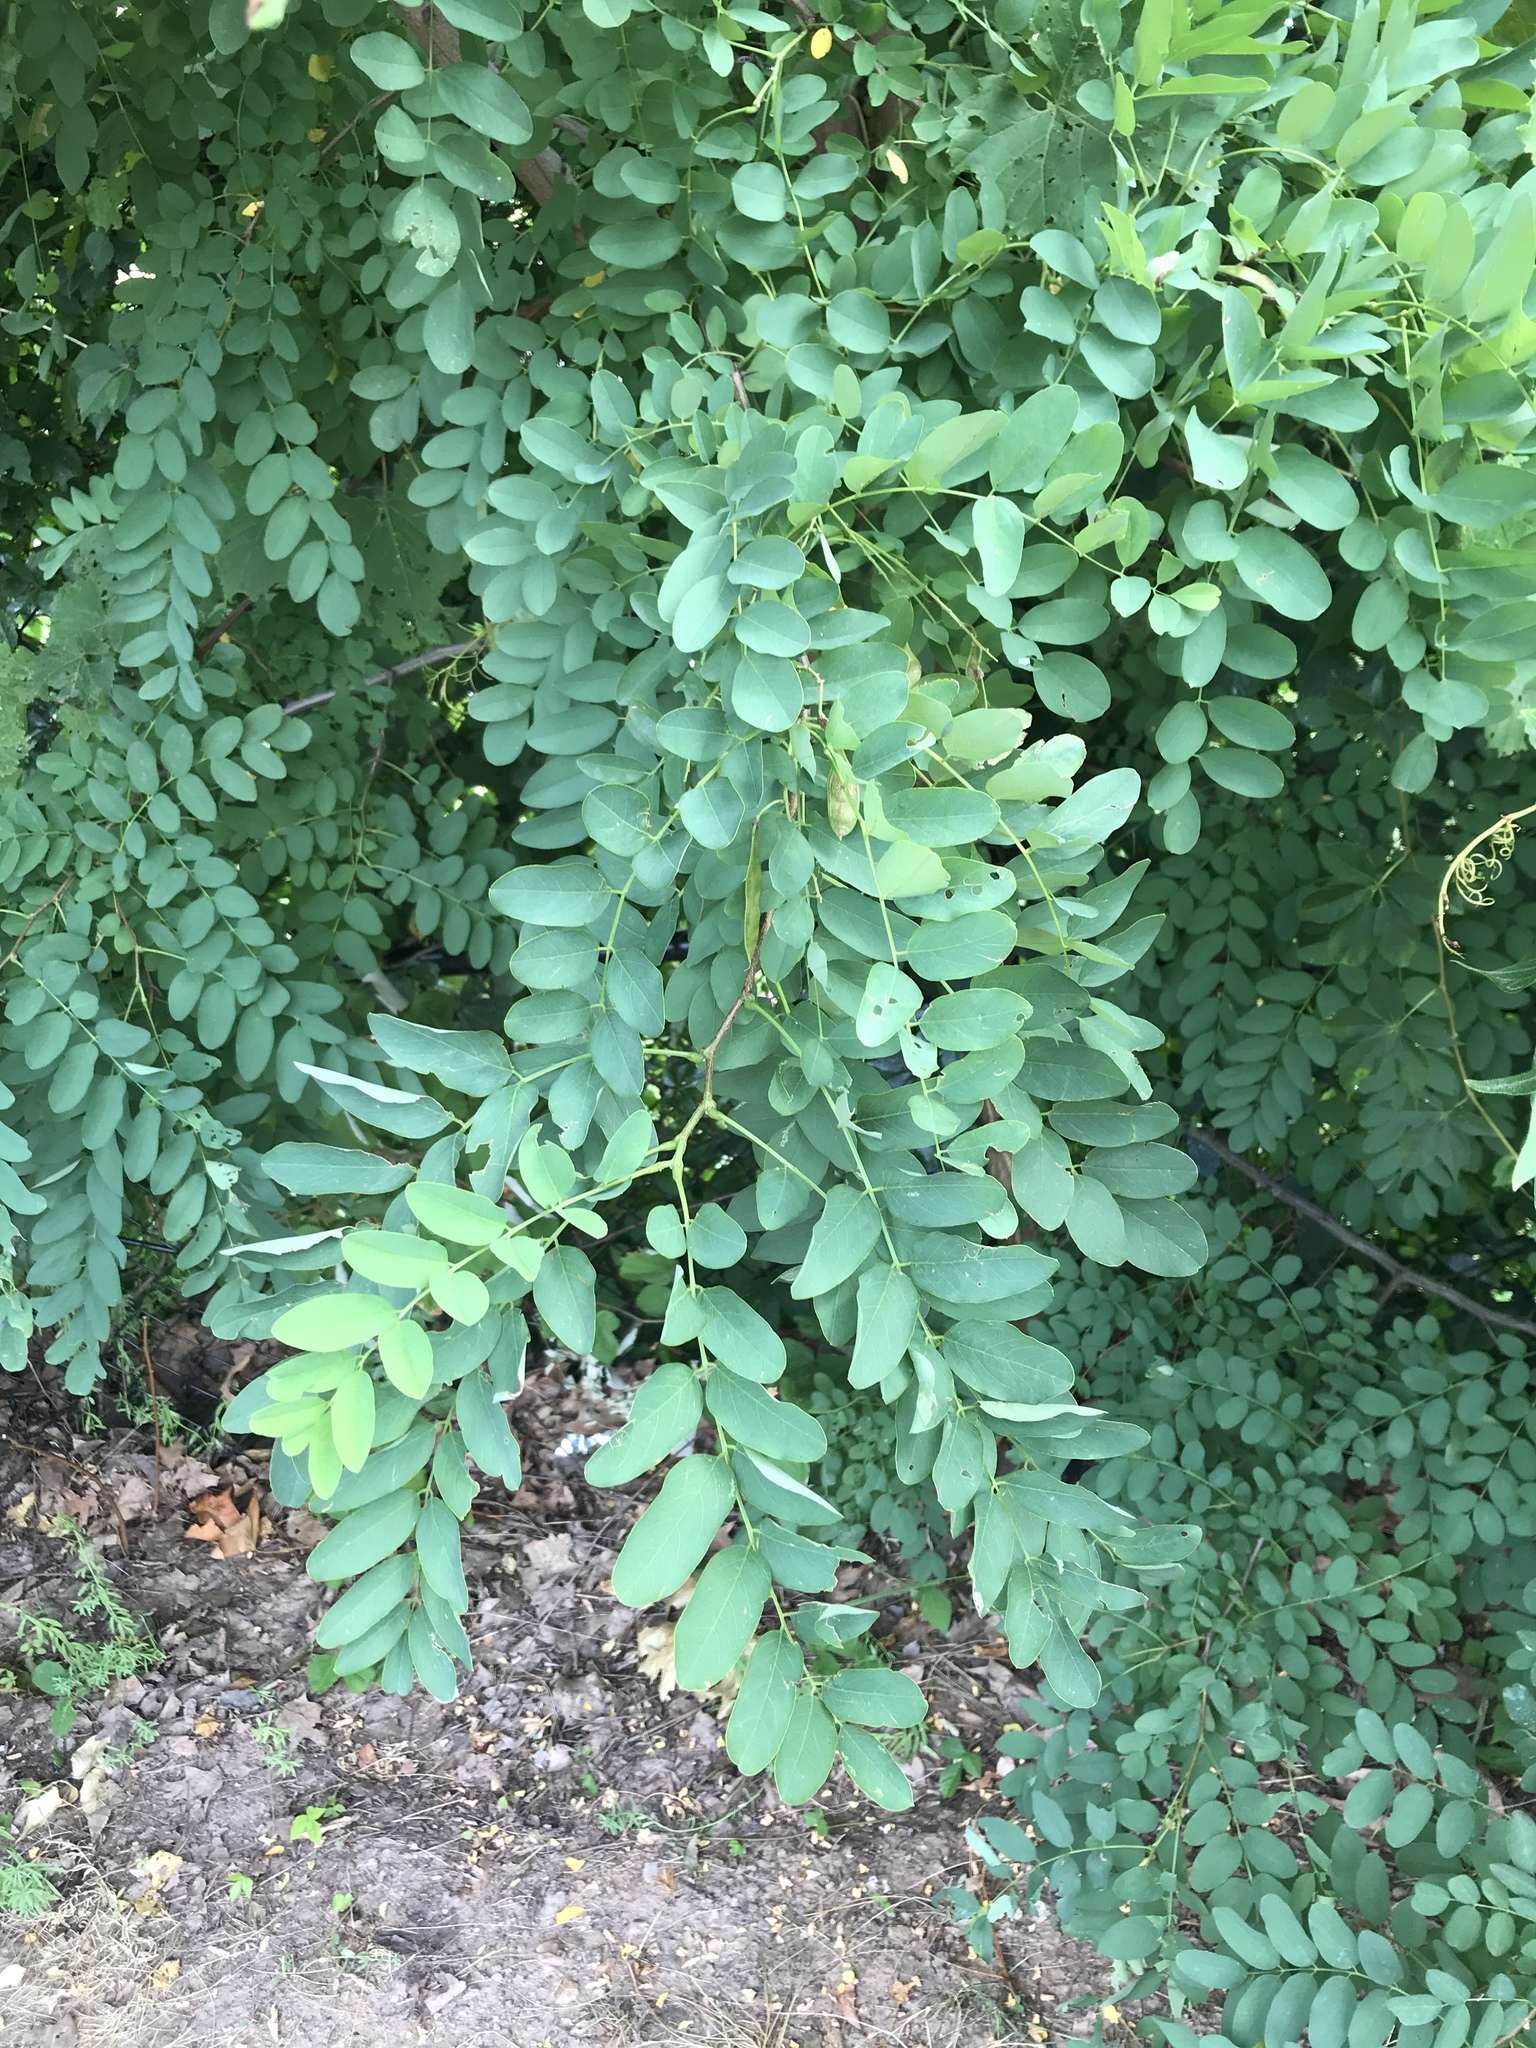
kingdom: Plantae
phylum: Tracheophyta
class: Magnoliopsida
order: Fabales
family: Fabaceae
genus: Robinia
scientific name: Robinia pseudoacacia
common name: Black locust
